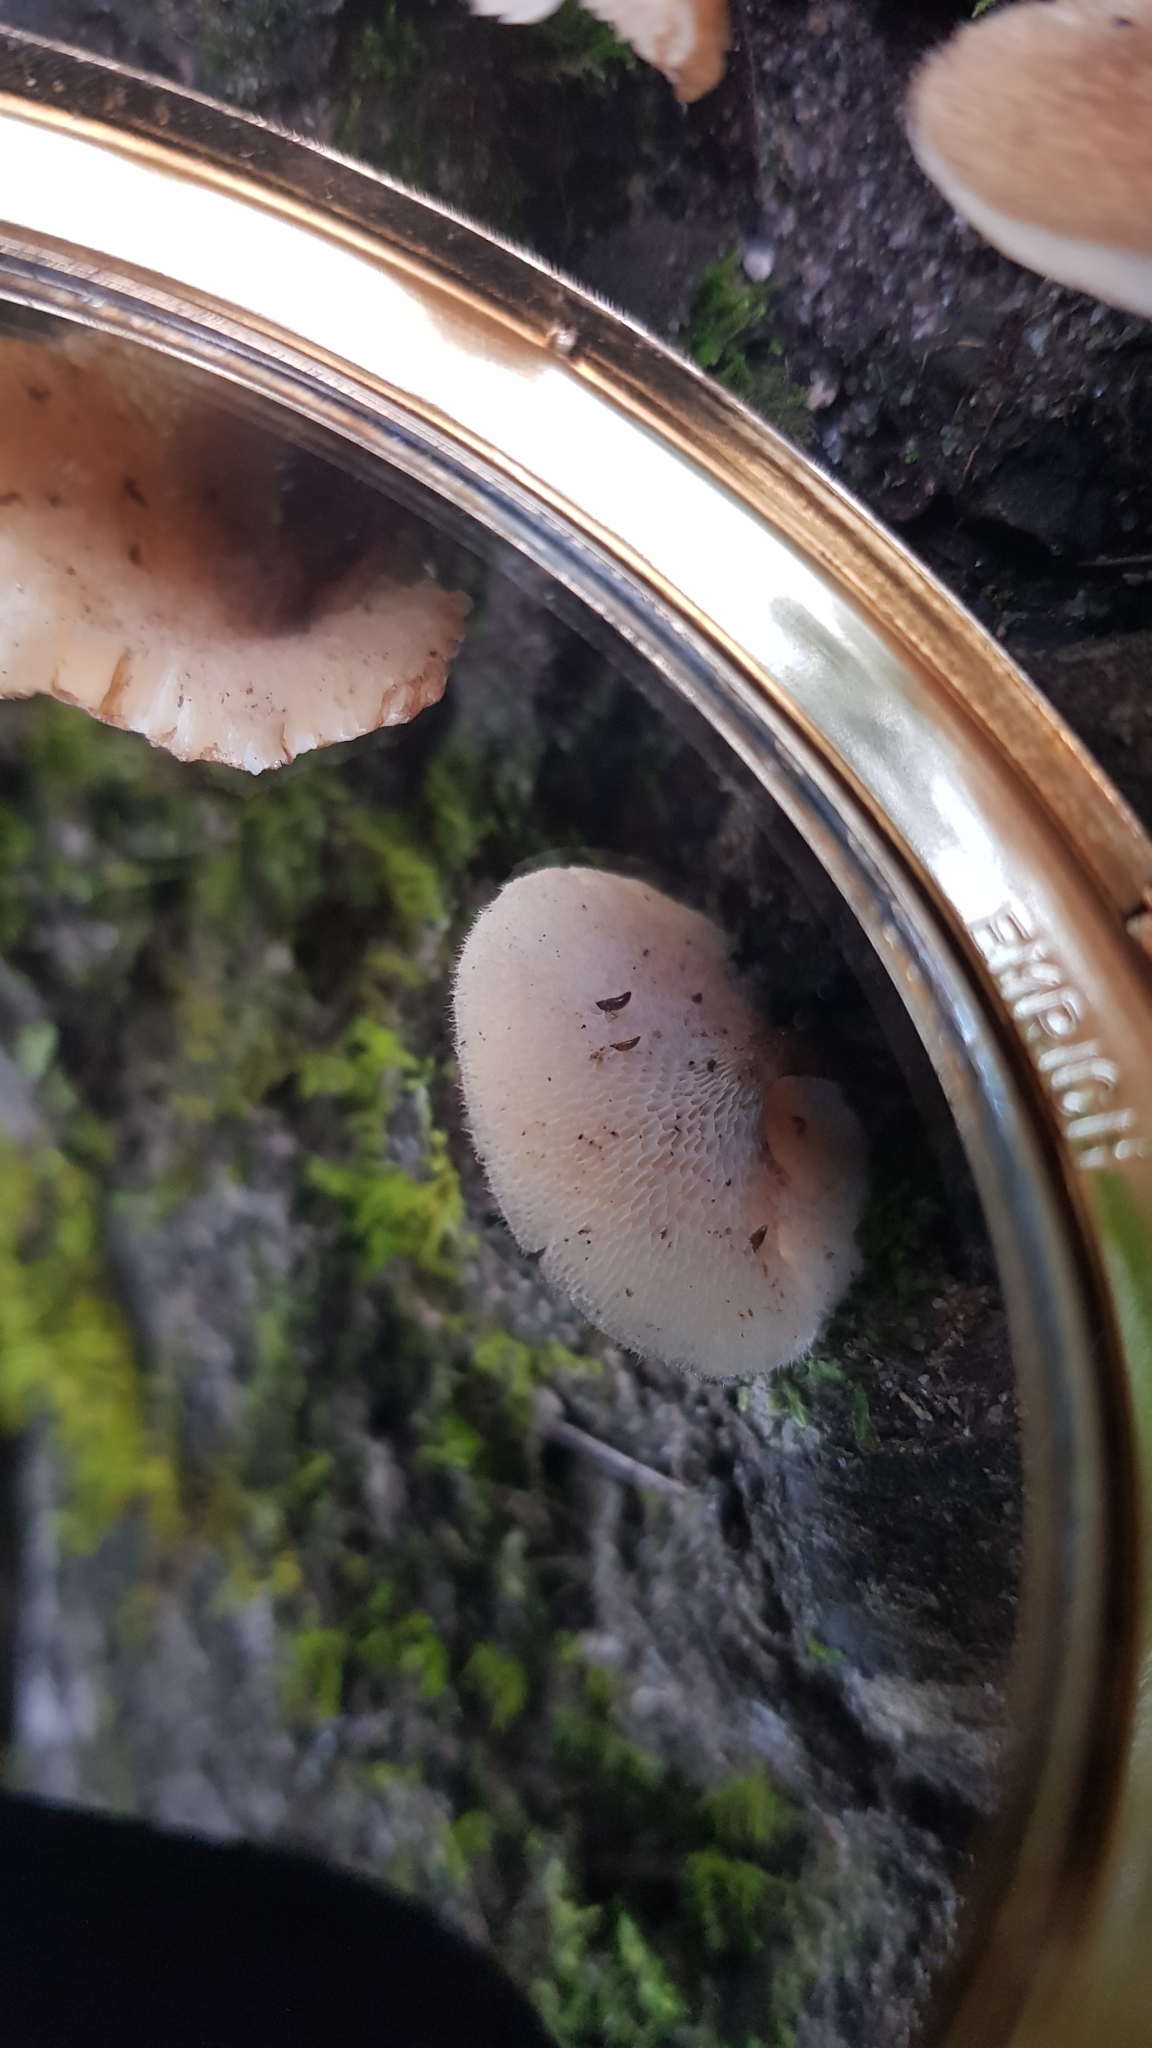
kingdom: Fungi
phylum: Basidiomycota
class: Agaricomycetes
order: Polyporales
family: Polyporaceae
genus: Lentinus
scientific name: Lentinus arcularius
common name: Spring polypore
